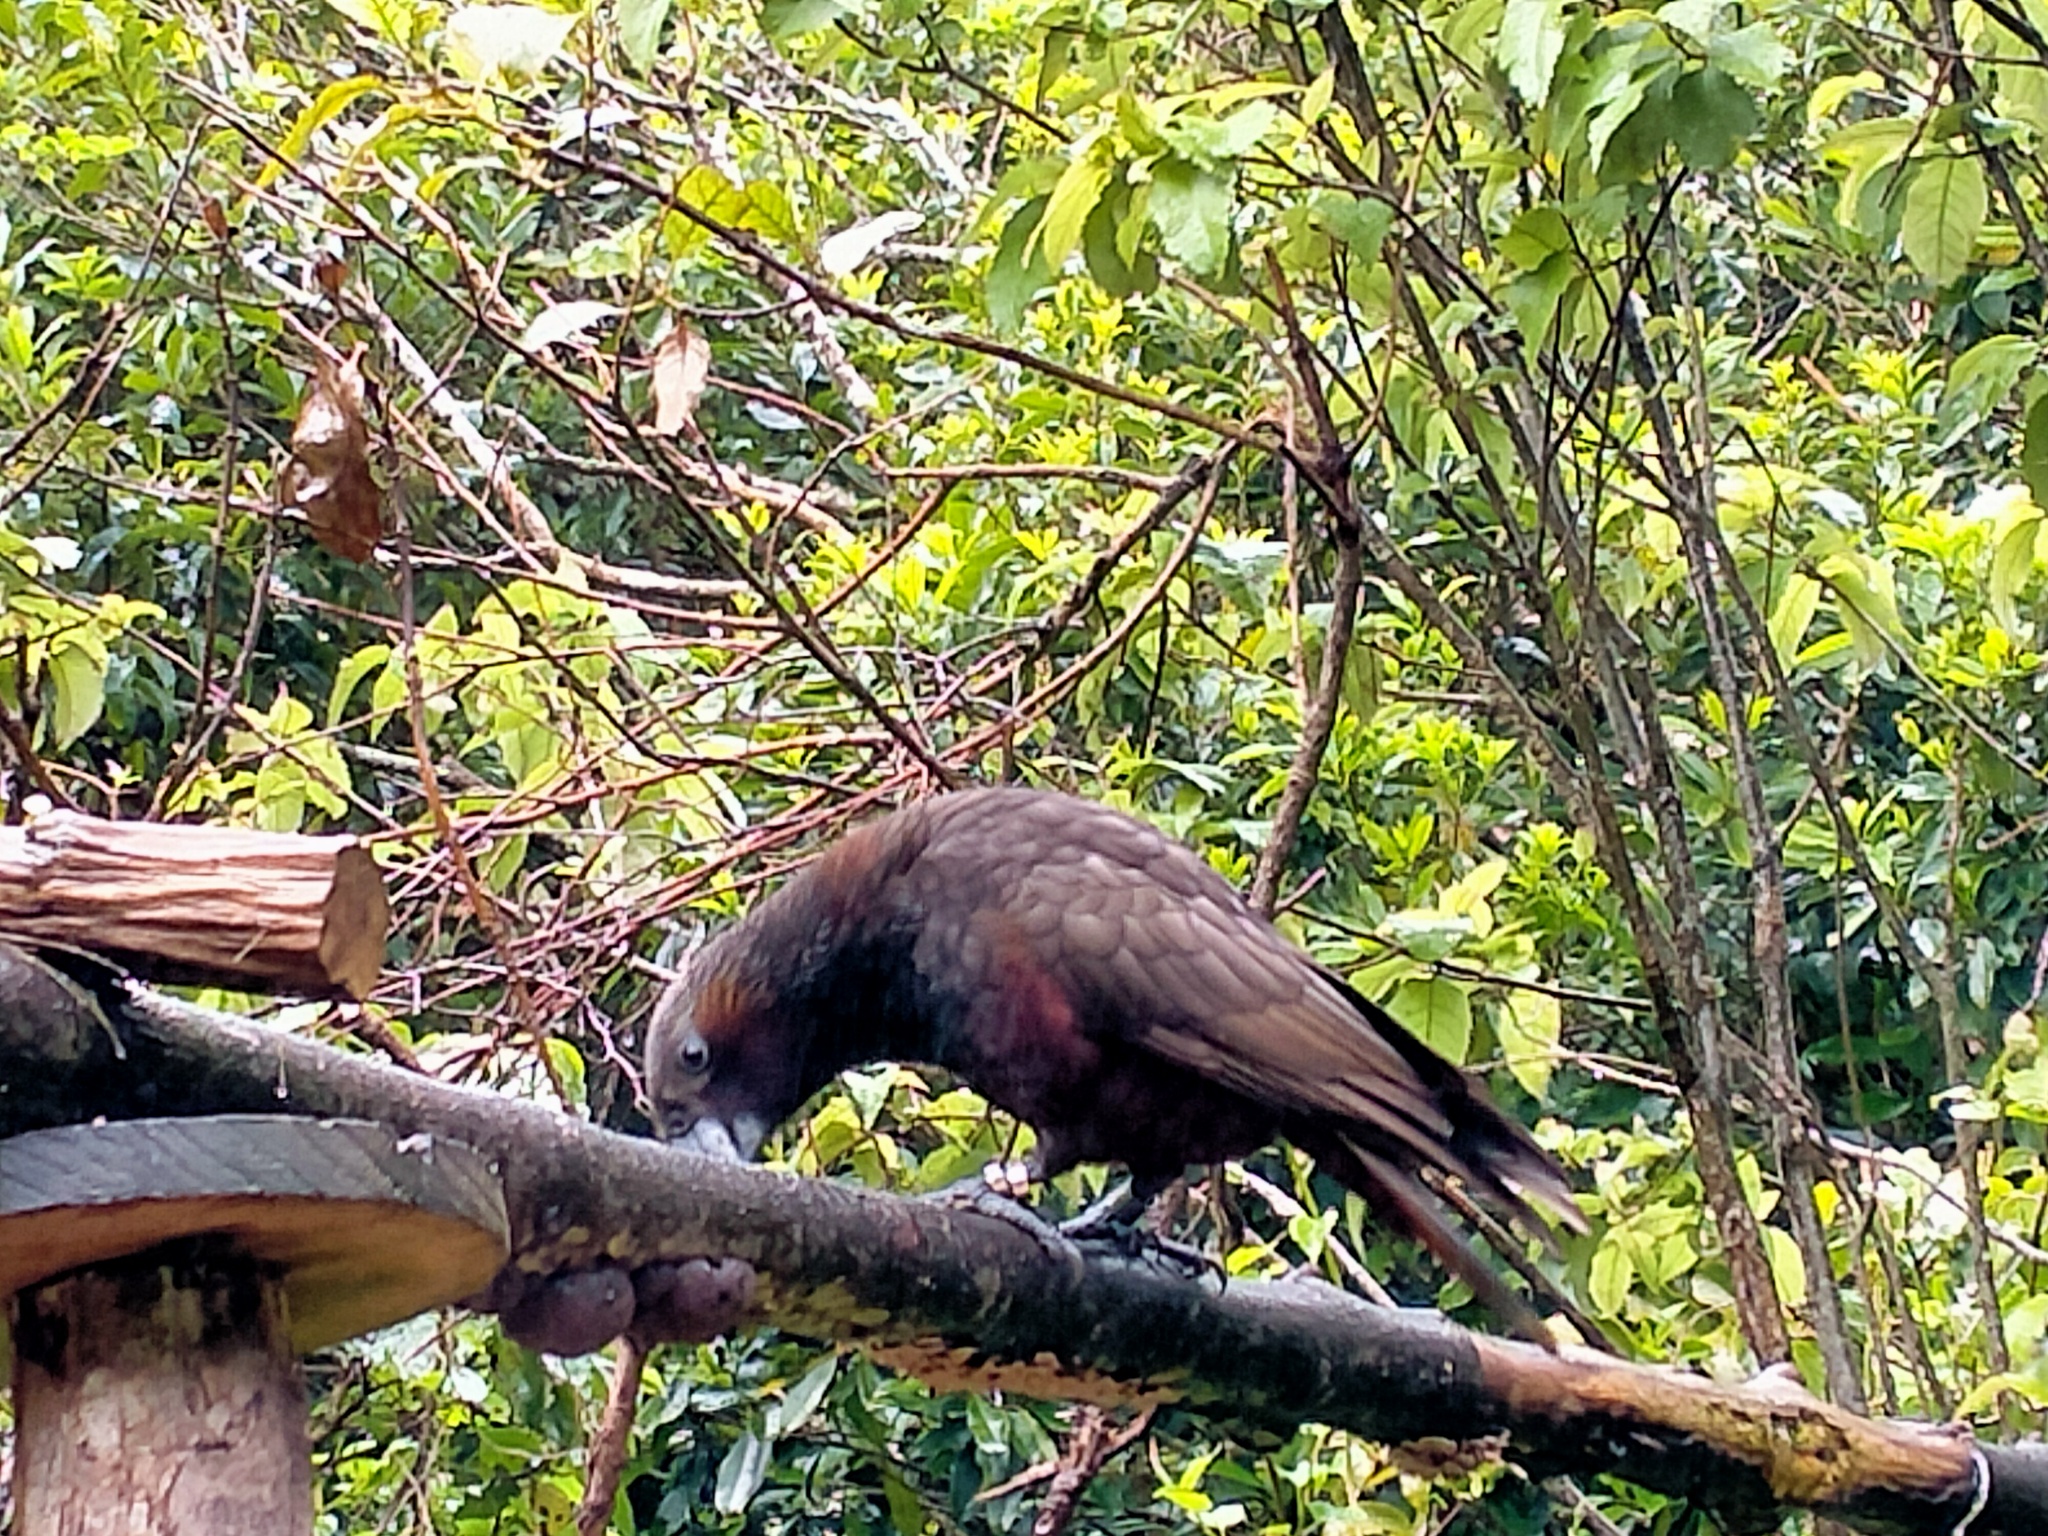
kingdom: Animalia
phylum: Chordata
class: Aves
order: Psittaciformes
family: Psittacidae
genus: Nestor
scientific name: Nestor meridionalis
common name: New zealand kaka
